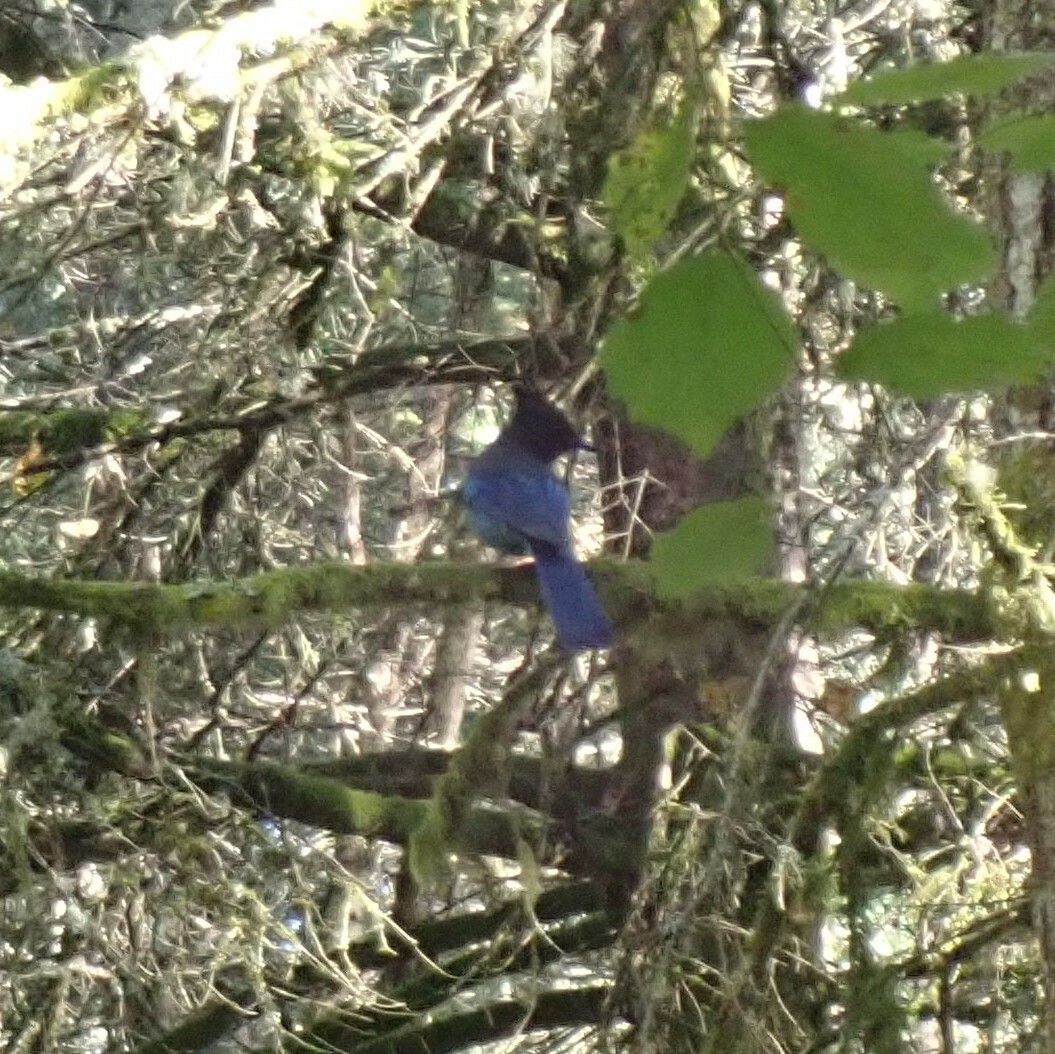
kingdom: Animalia
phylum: Chordata
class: Aves
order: Passeriformes
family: Corvidae
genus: Cyanocitta
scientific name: Cyanocitta stelleri
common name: Steller's jay
